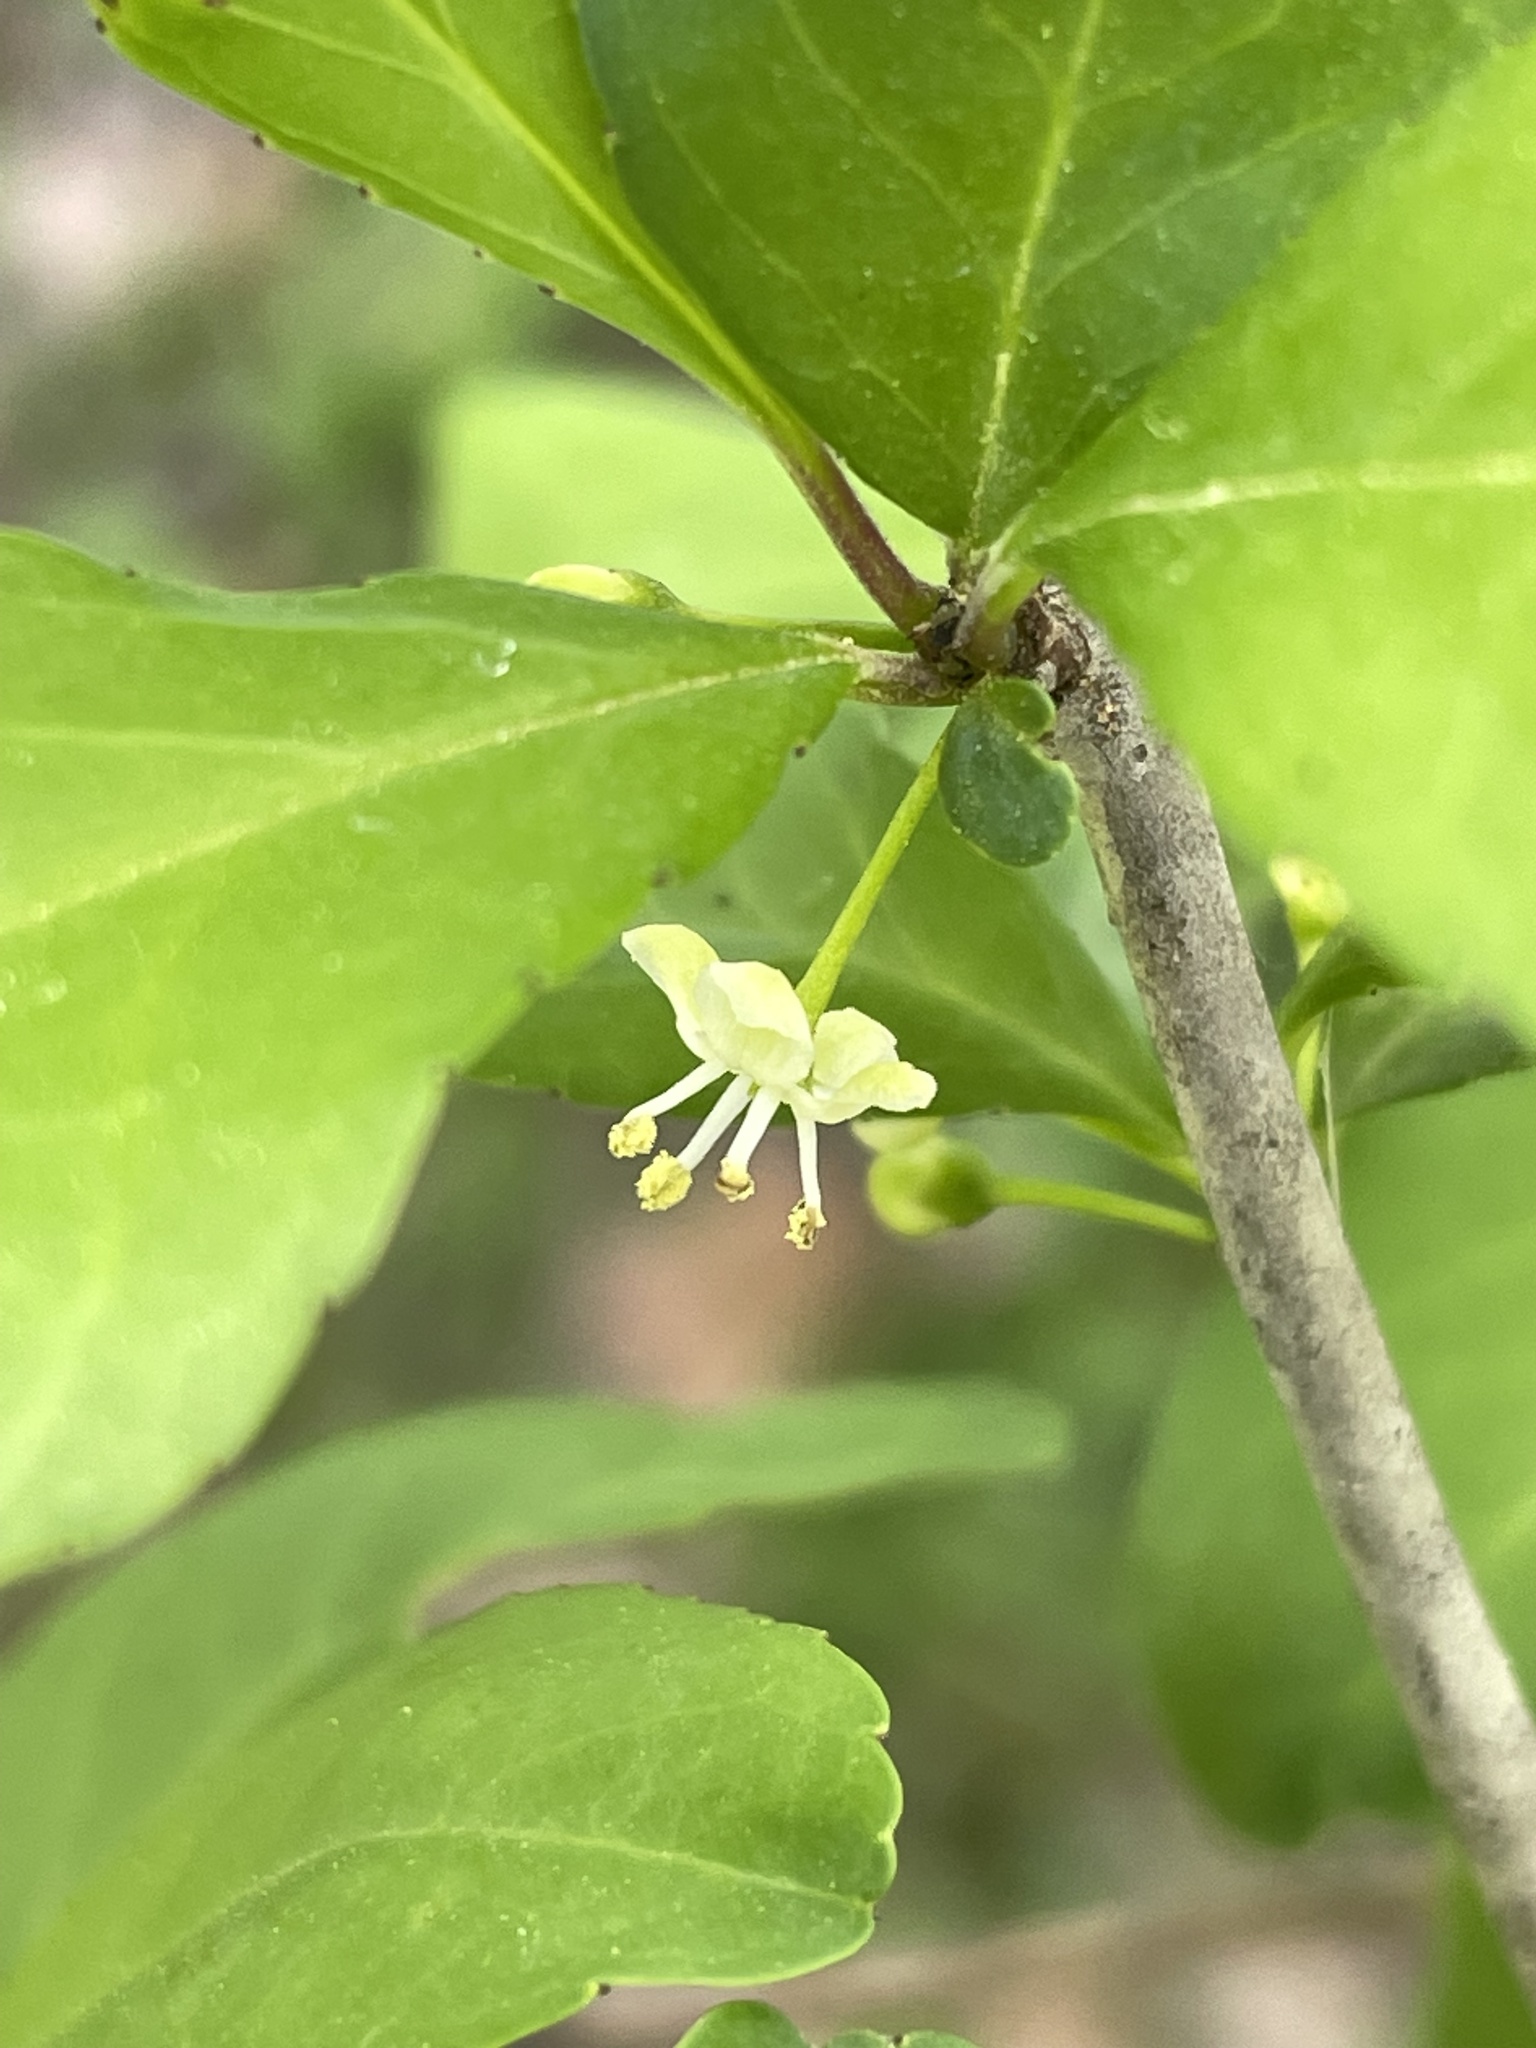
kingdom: Plantae
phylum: Tracheophyta
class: Magnoliopsida
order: Aquifoliales
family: Aquifoliaceae
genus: Ilex
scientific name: Ilex decidua
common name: Possum-haw
